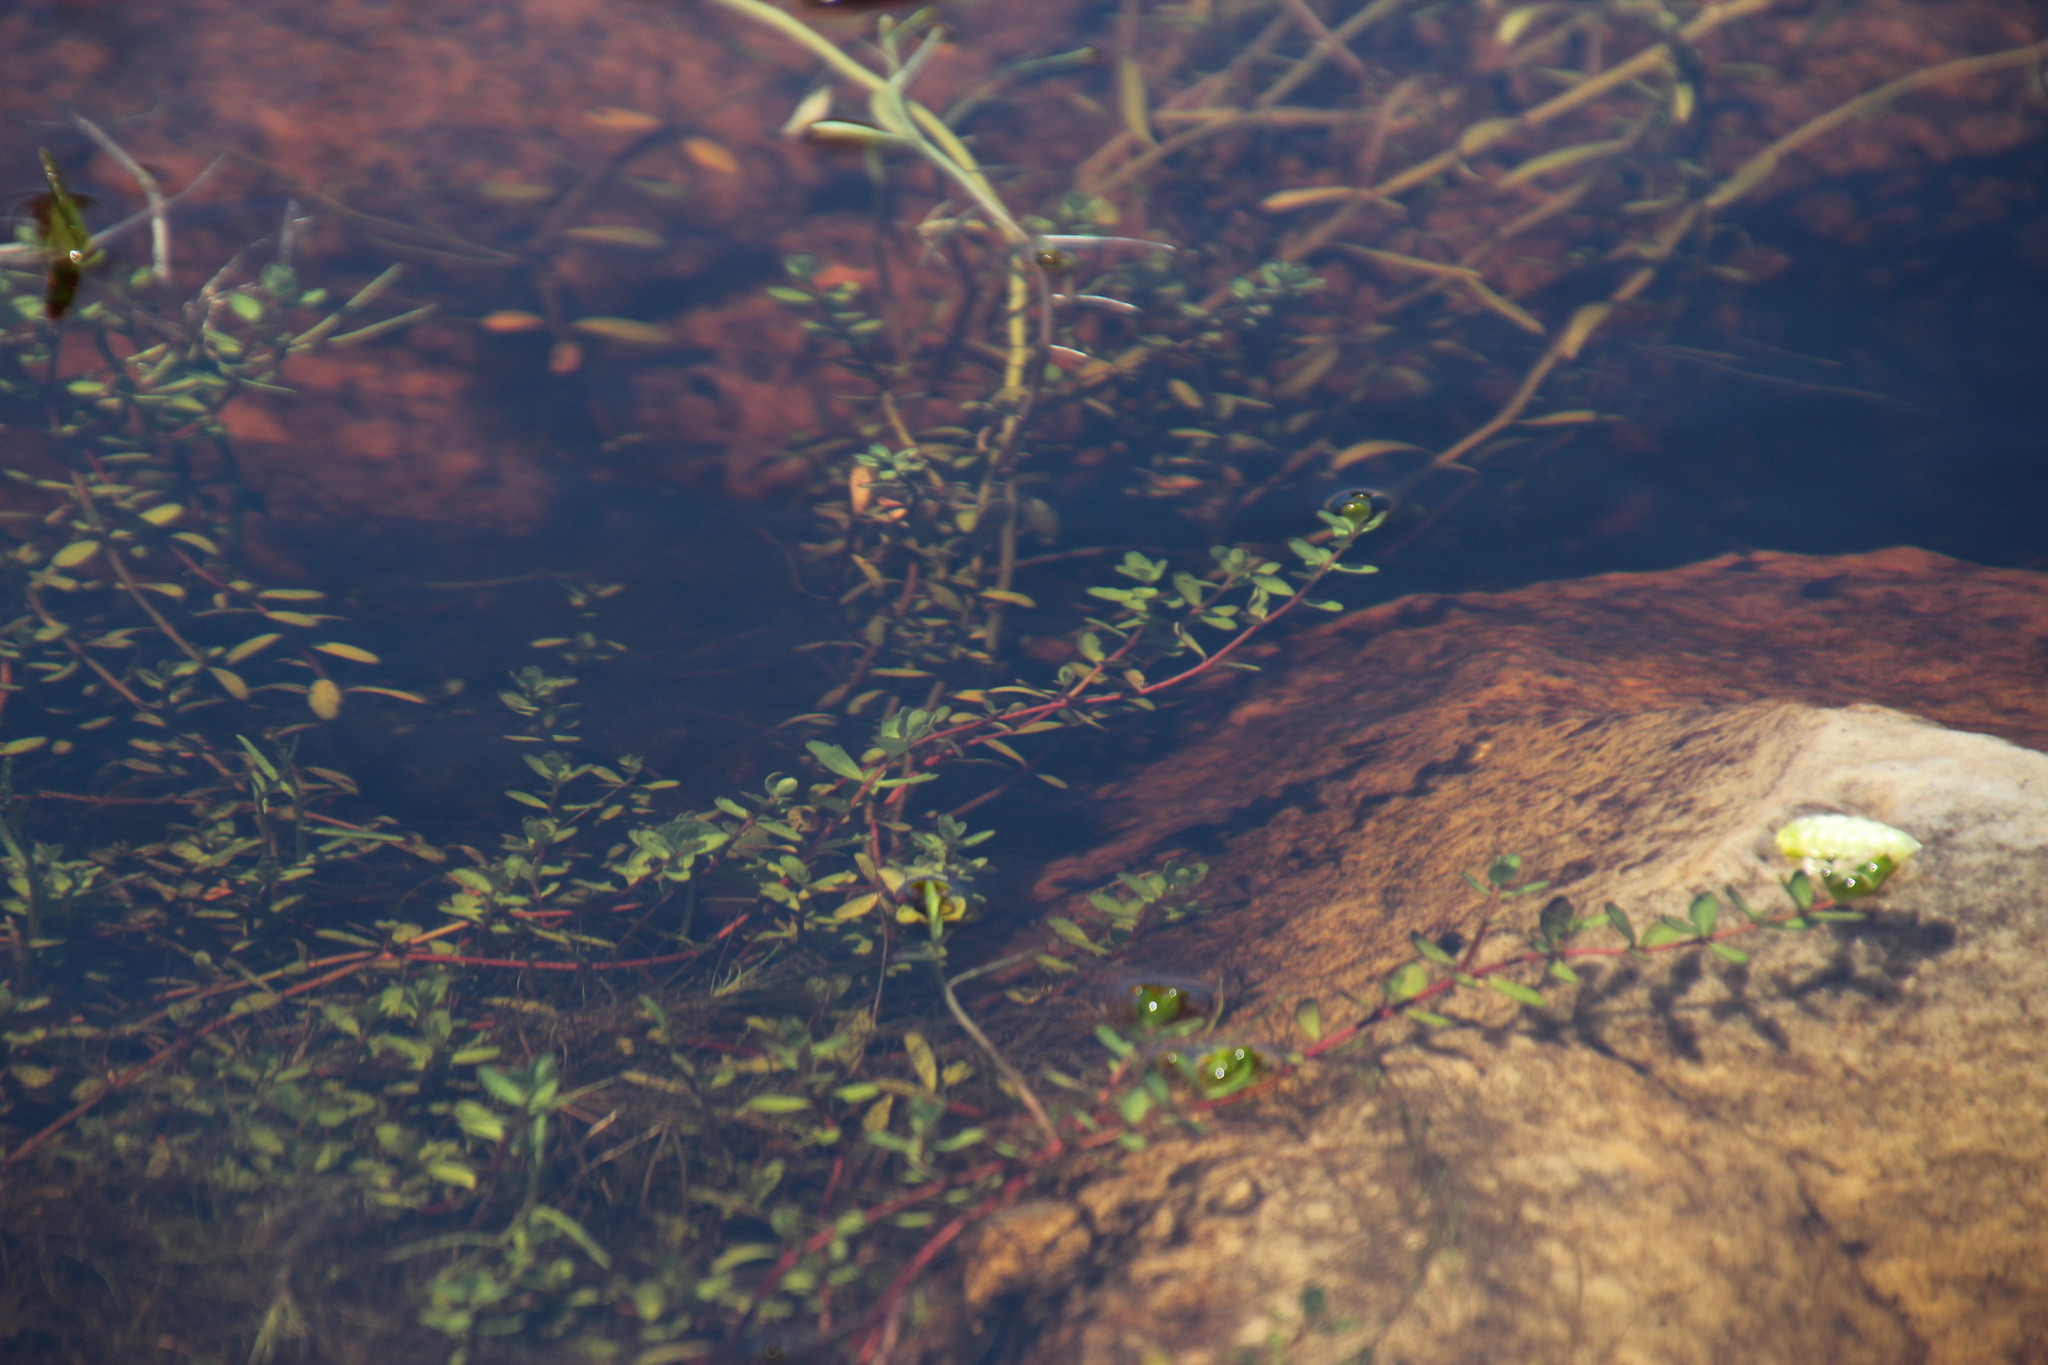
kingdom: Plantae
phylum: Tracheophyta
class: Magnoliopsida
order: Saxifragales
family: Haloragaceae
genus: Laurembergia
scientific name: Laurembergia repens
